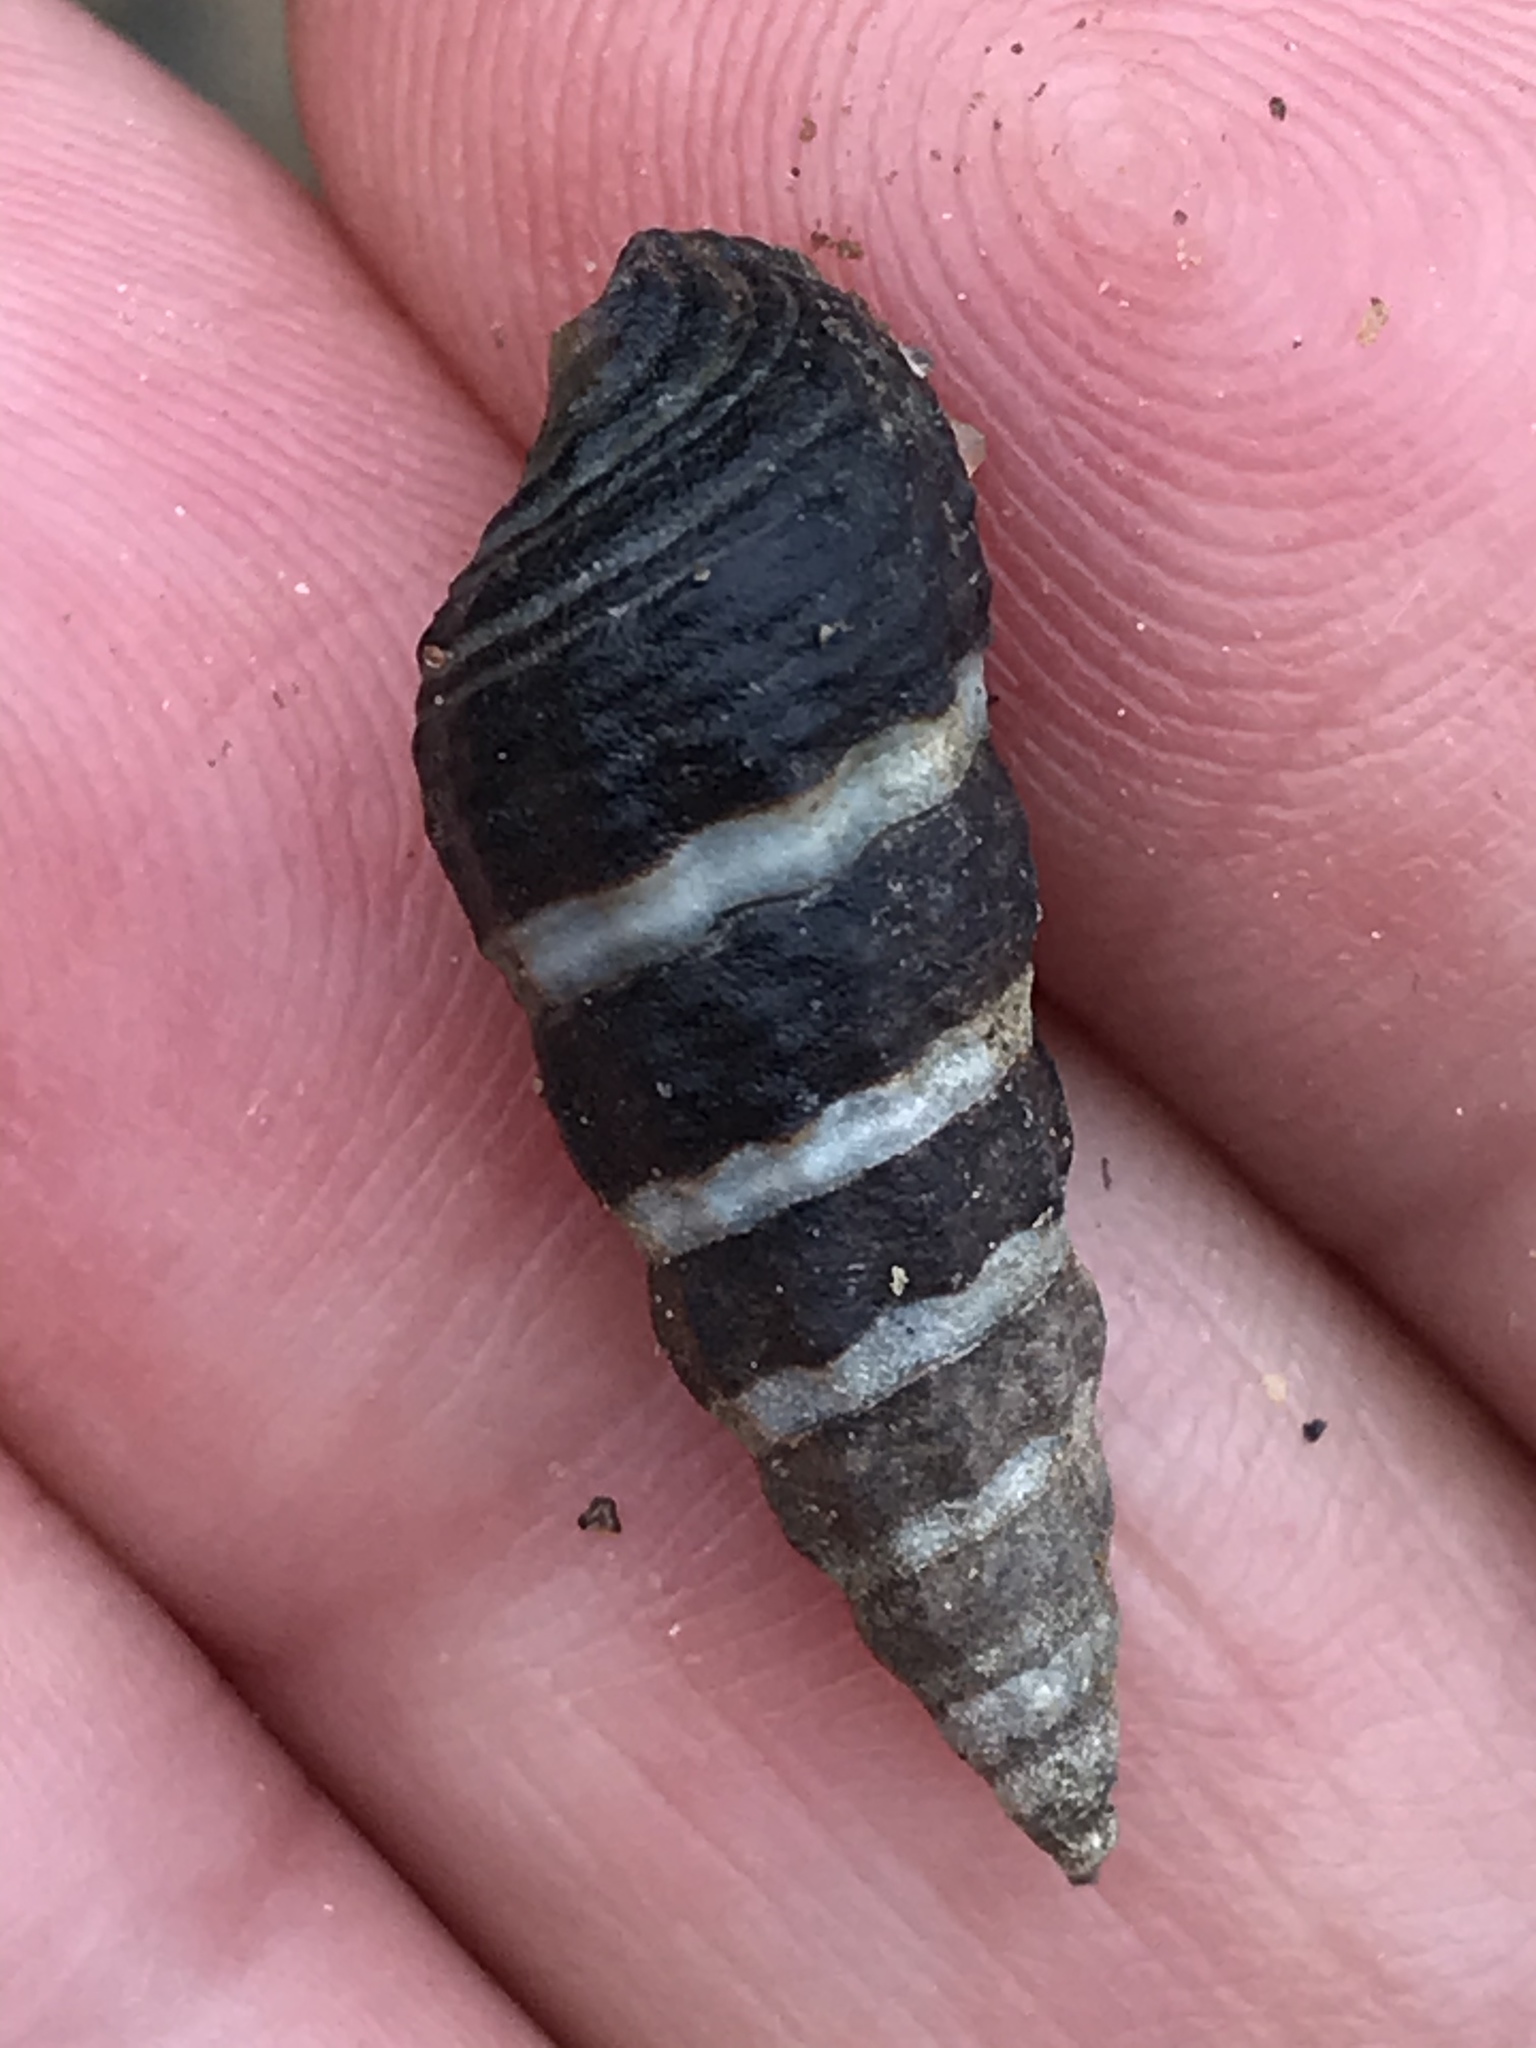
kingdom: Animalia
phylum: Mollusca
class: Gastropoda
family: Batillariidae
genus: Batillaria
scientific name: Batillaria attramentaria
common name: Japanese false cerith
